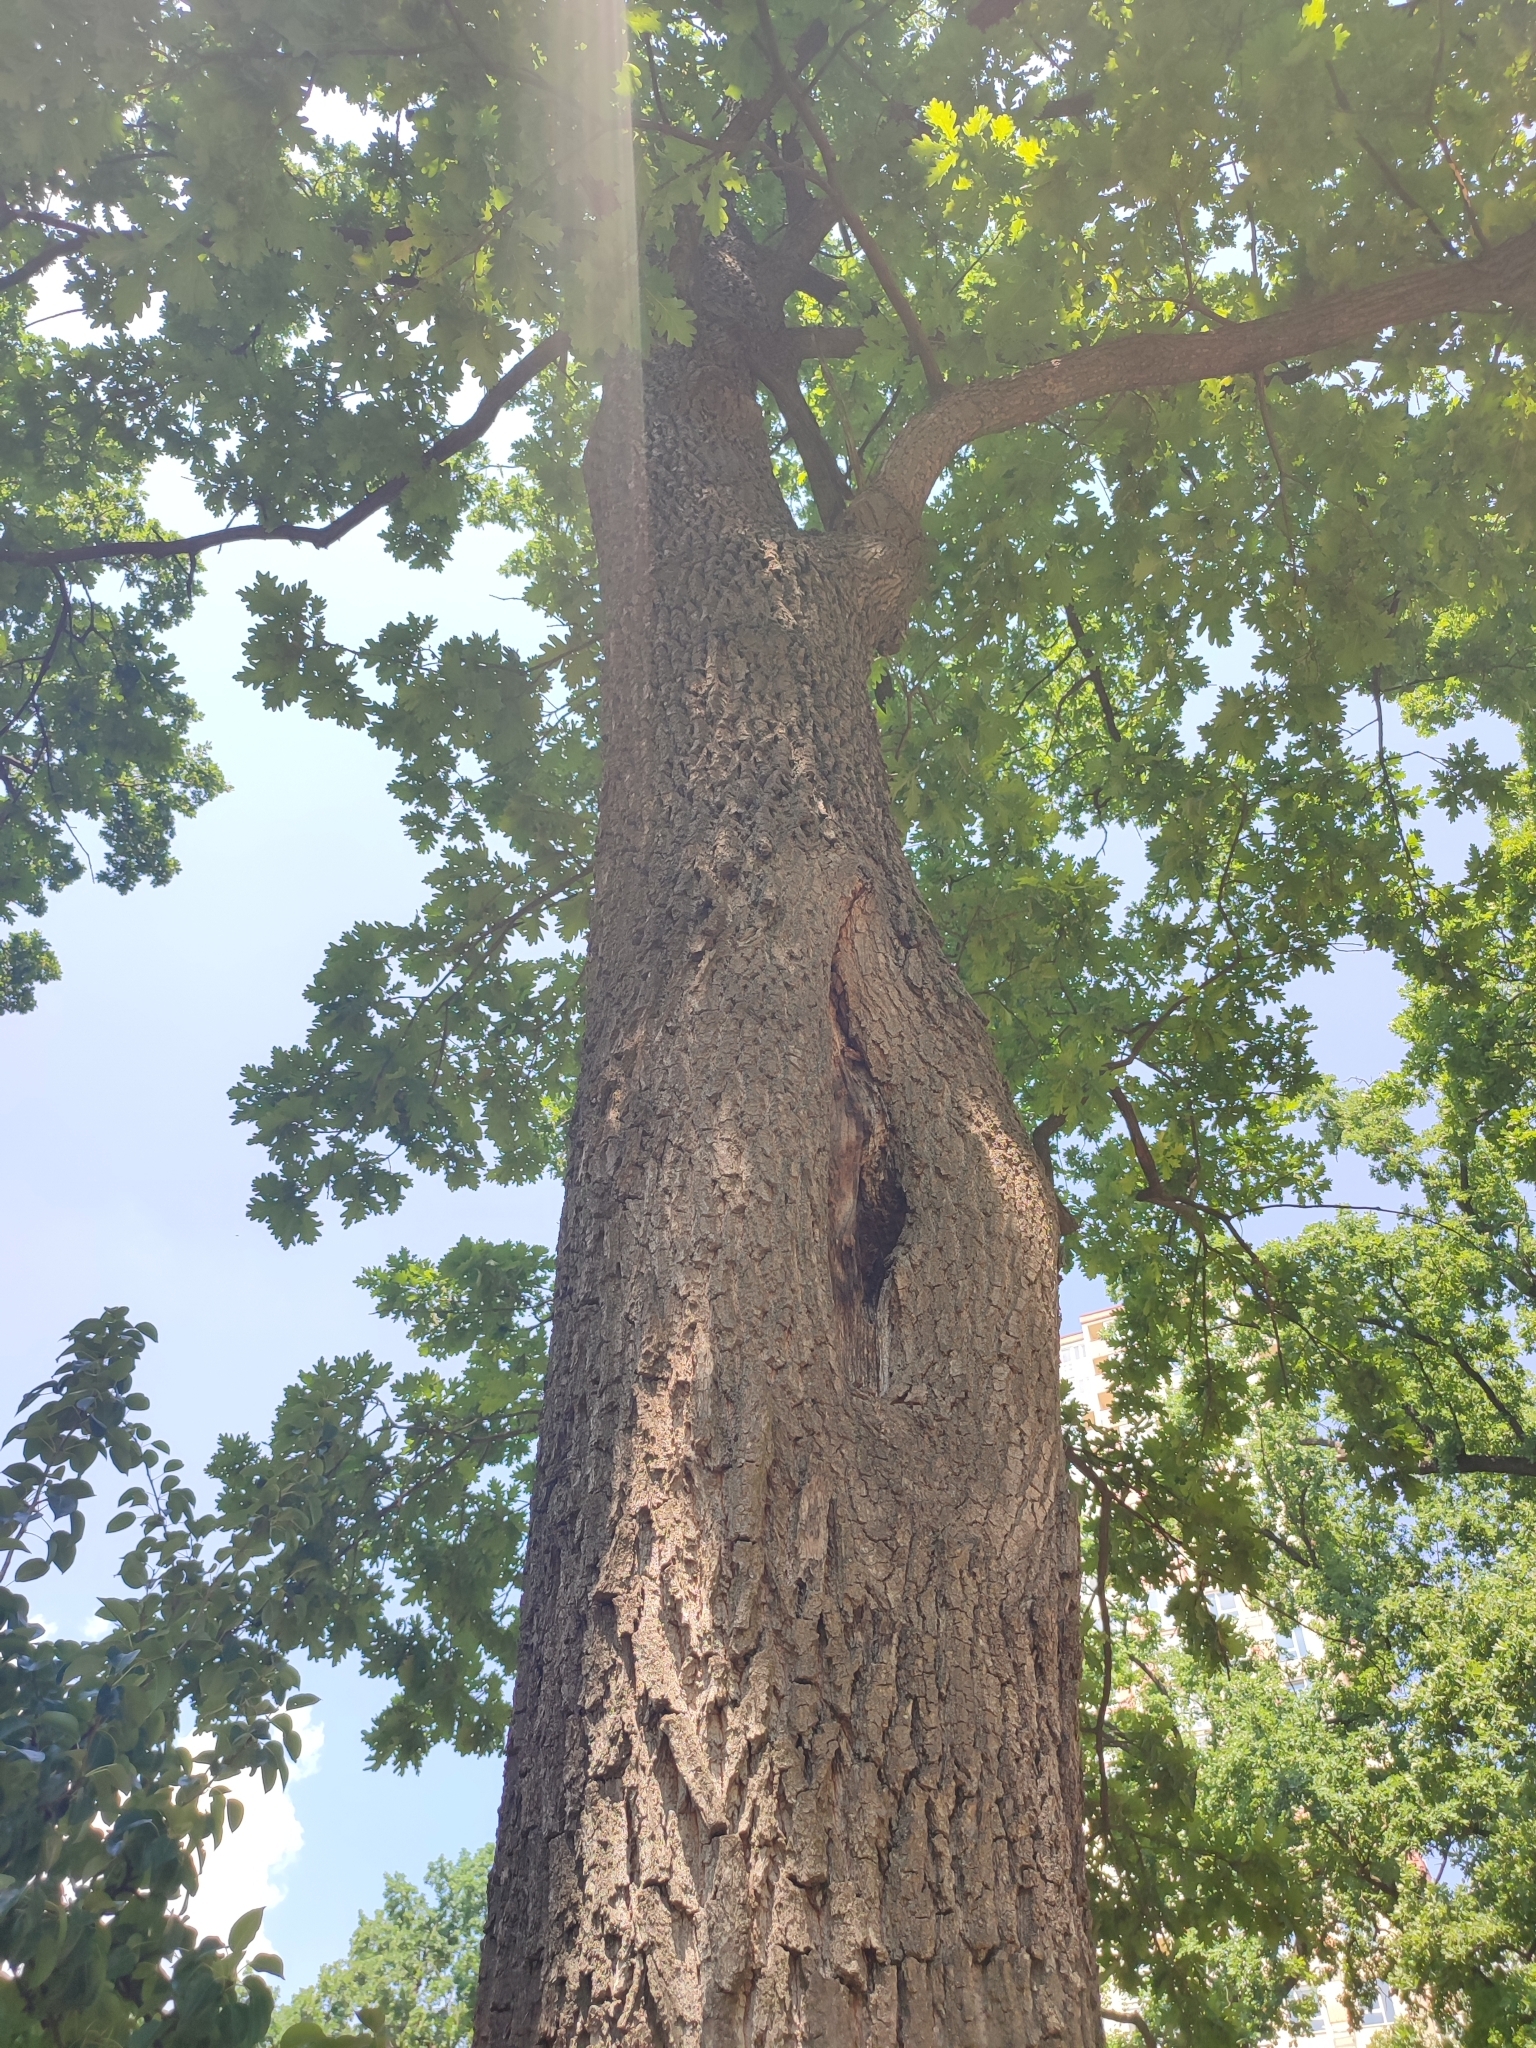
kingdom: Plantae
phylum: Tracheophyta
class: Magnoliopsida
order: Fagales
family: Fagaceae
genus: Quercus
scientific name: Quercus robur
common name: Pedunculate oak
